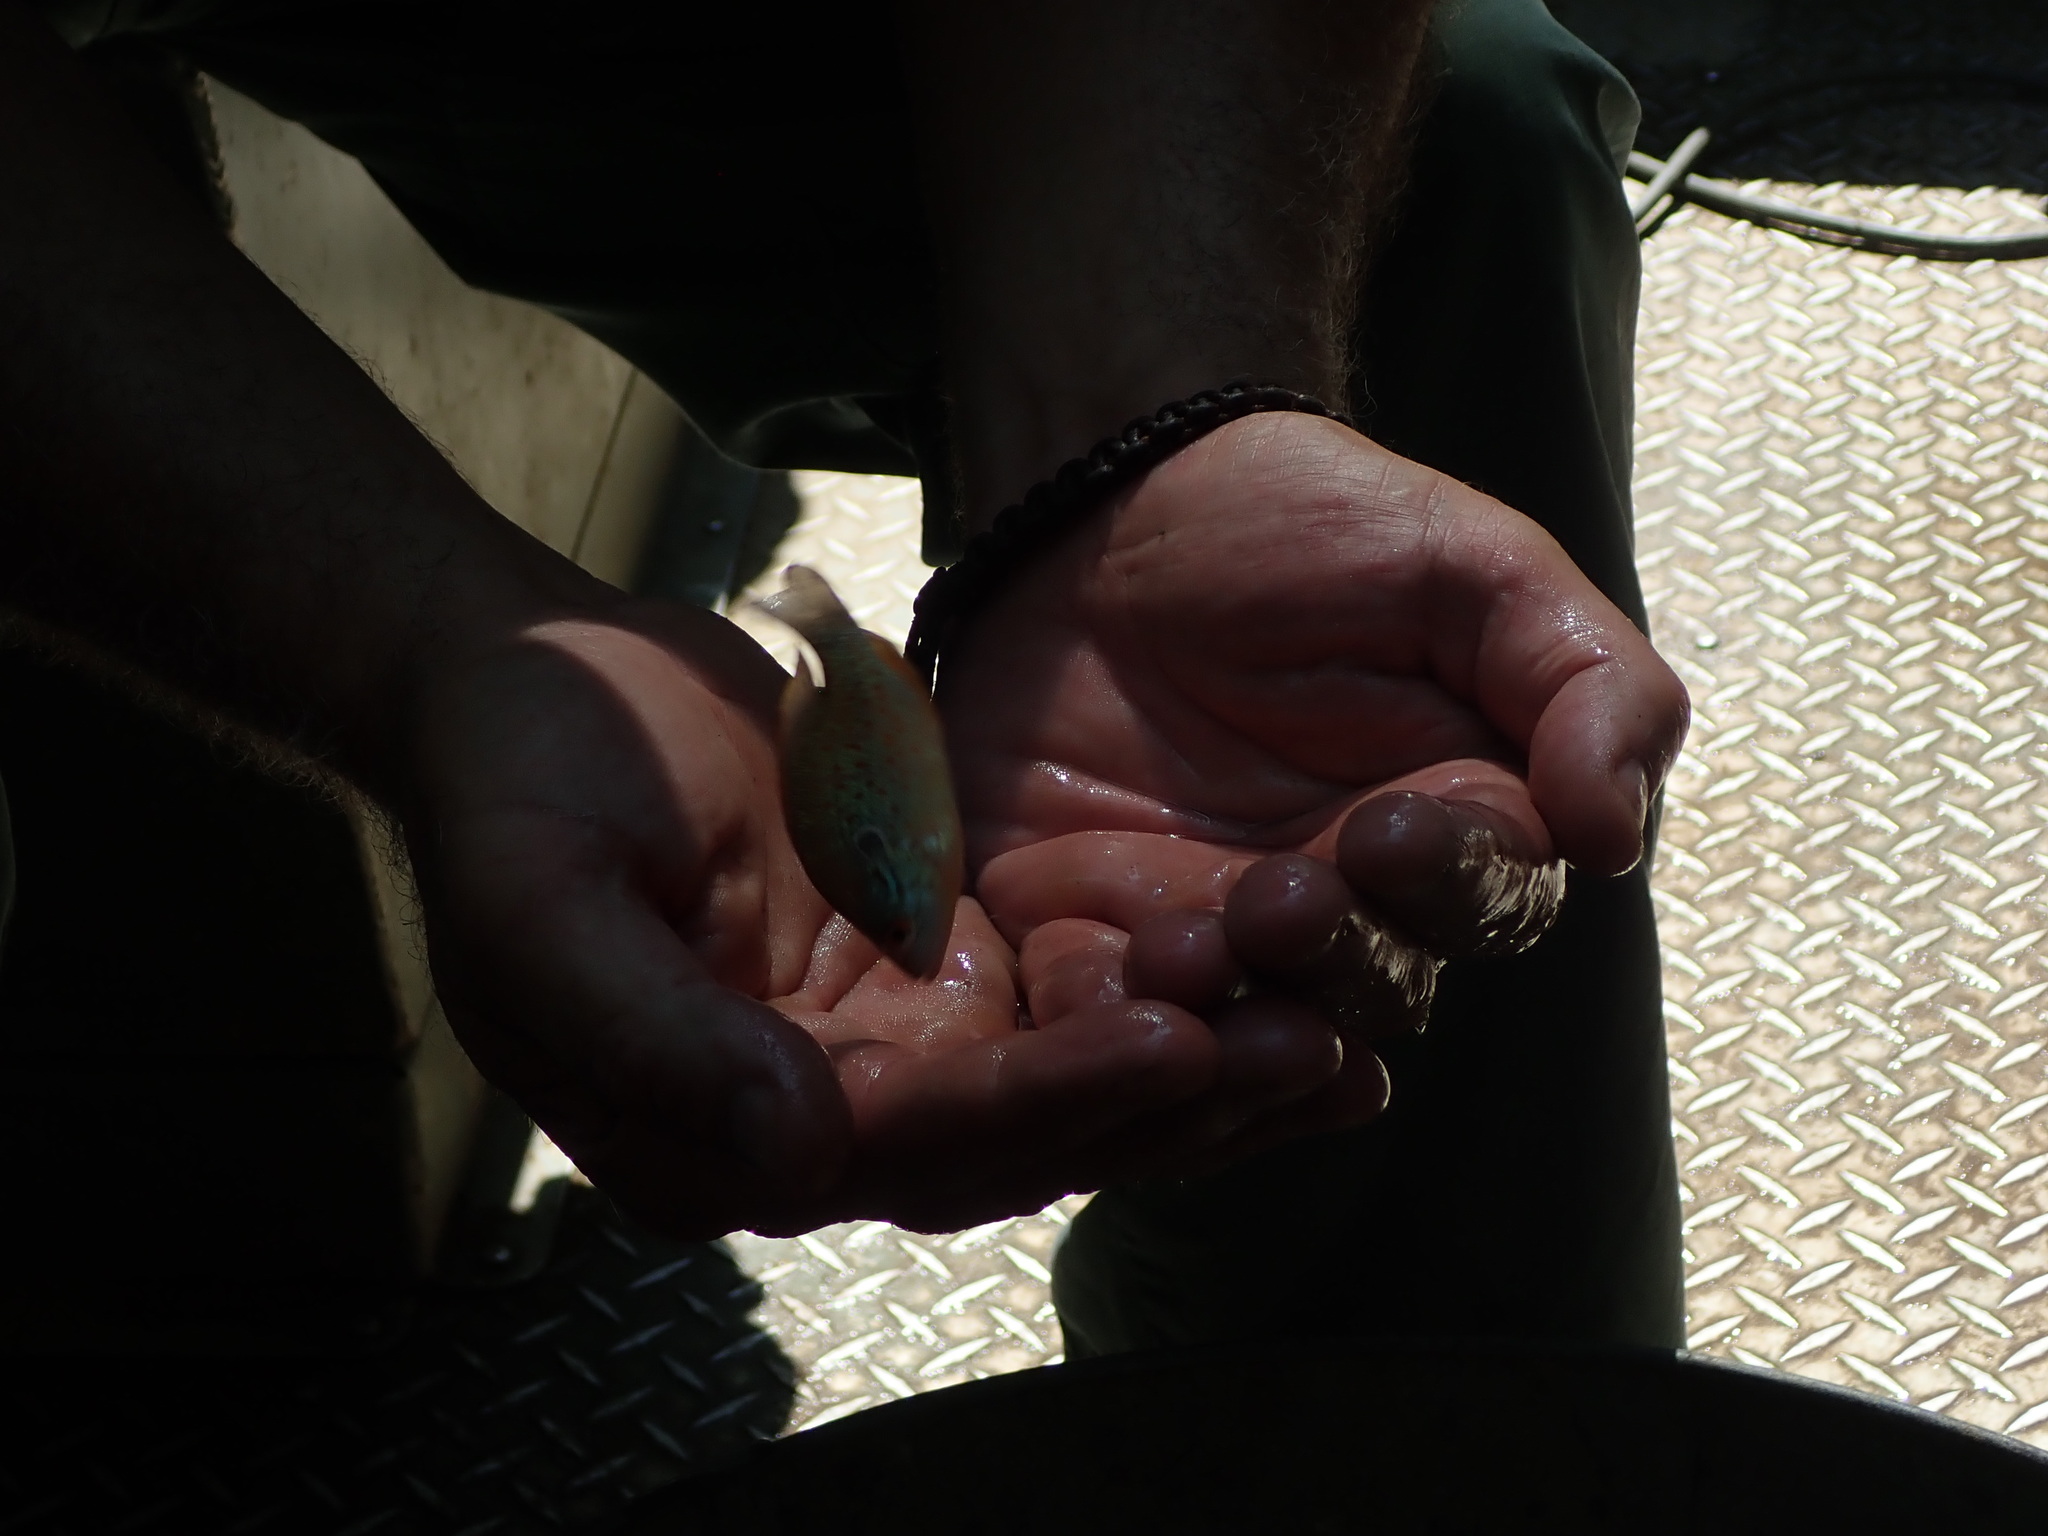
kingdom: Animalia
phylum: Chordata
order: Perciformes
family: Centrarchidae
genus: Lepomis
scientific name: Lepomis humilis
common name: Orangespotted sunfish
